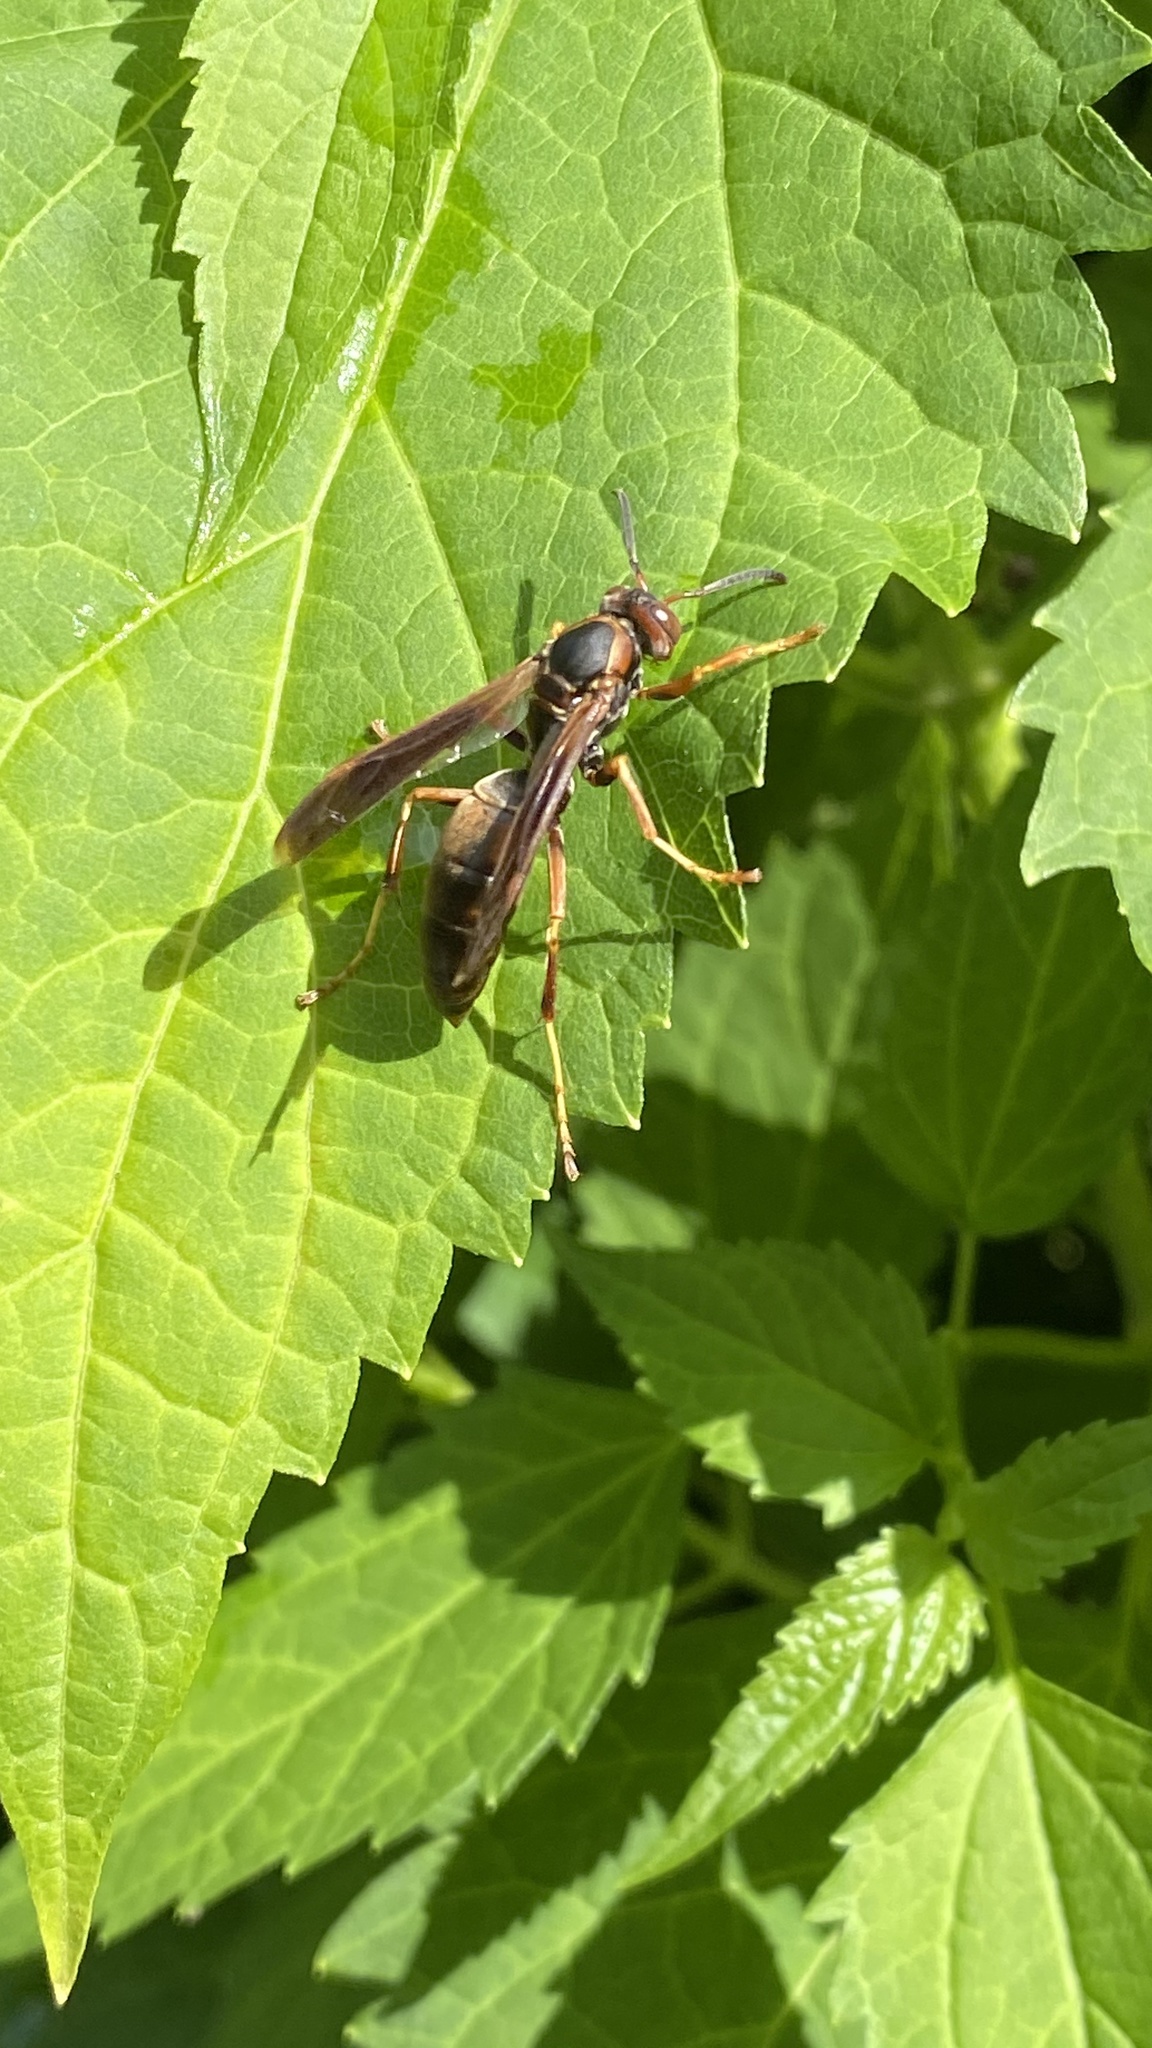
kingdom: Animalia
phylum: Arthropoda
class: Insecta
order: Hymenoptera
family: Eumenidae
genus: Polistes
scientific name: Polistes fuscatus
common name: Dark paper wasp
